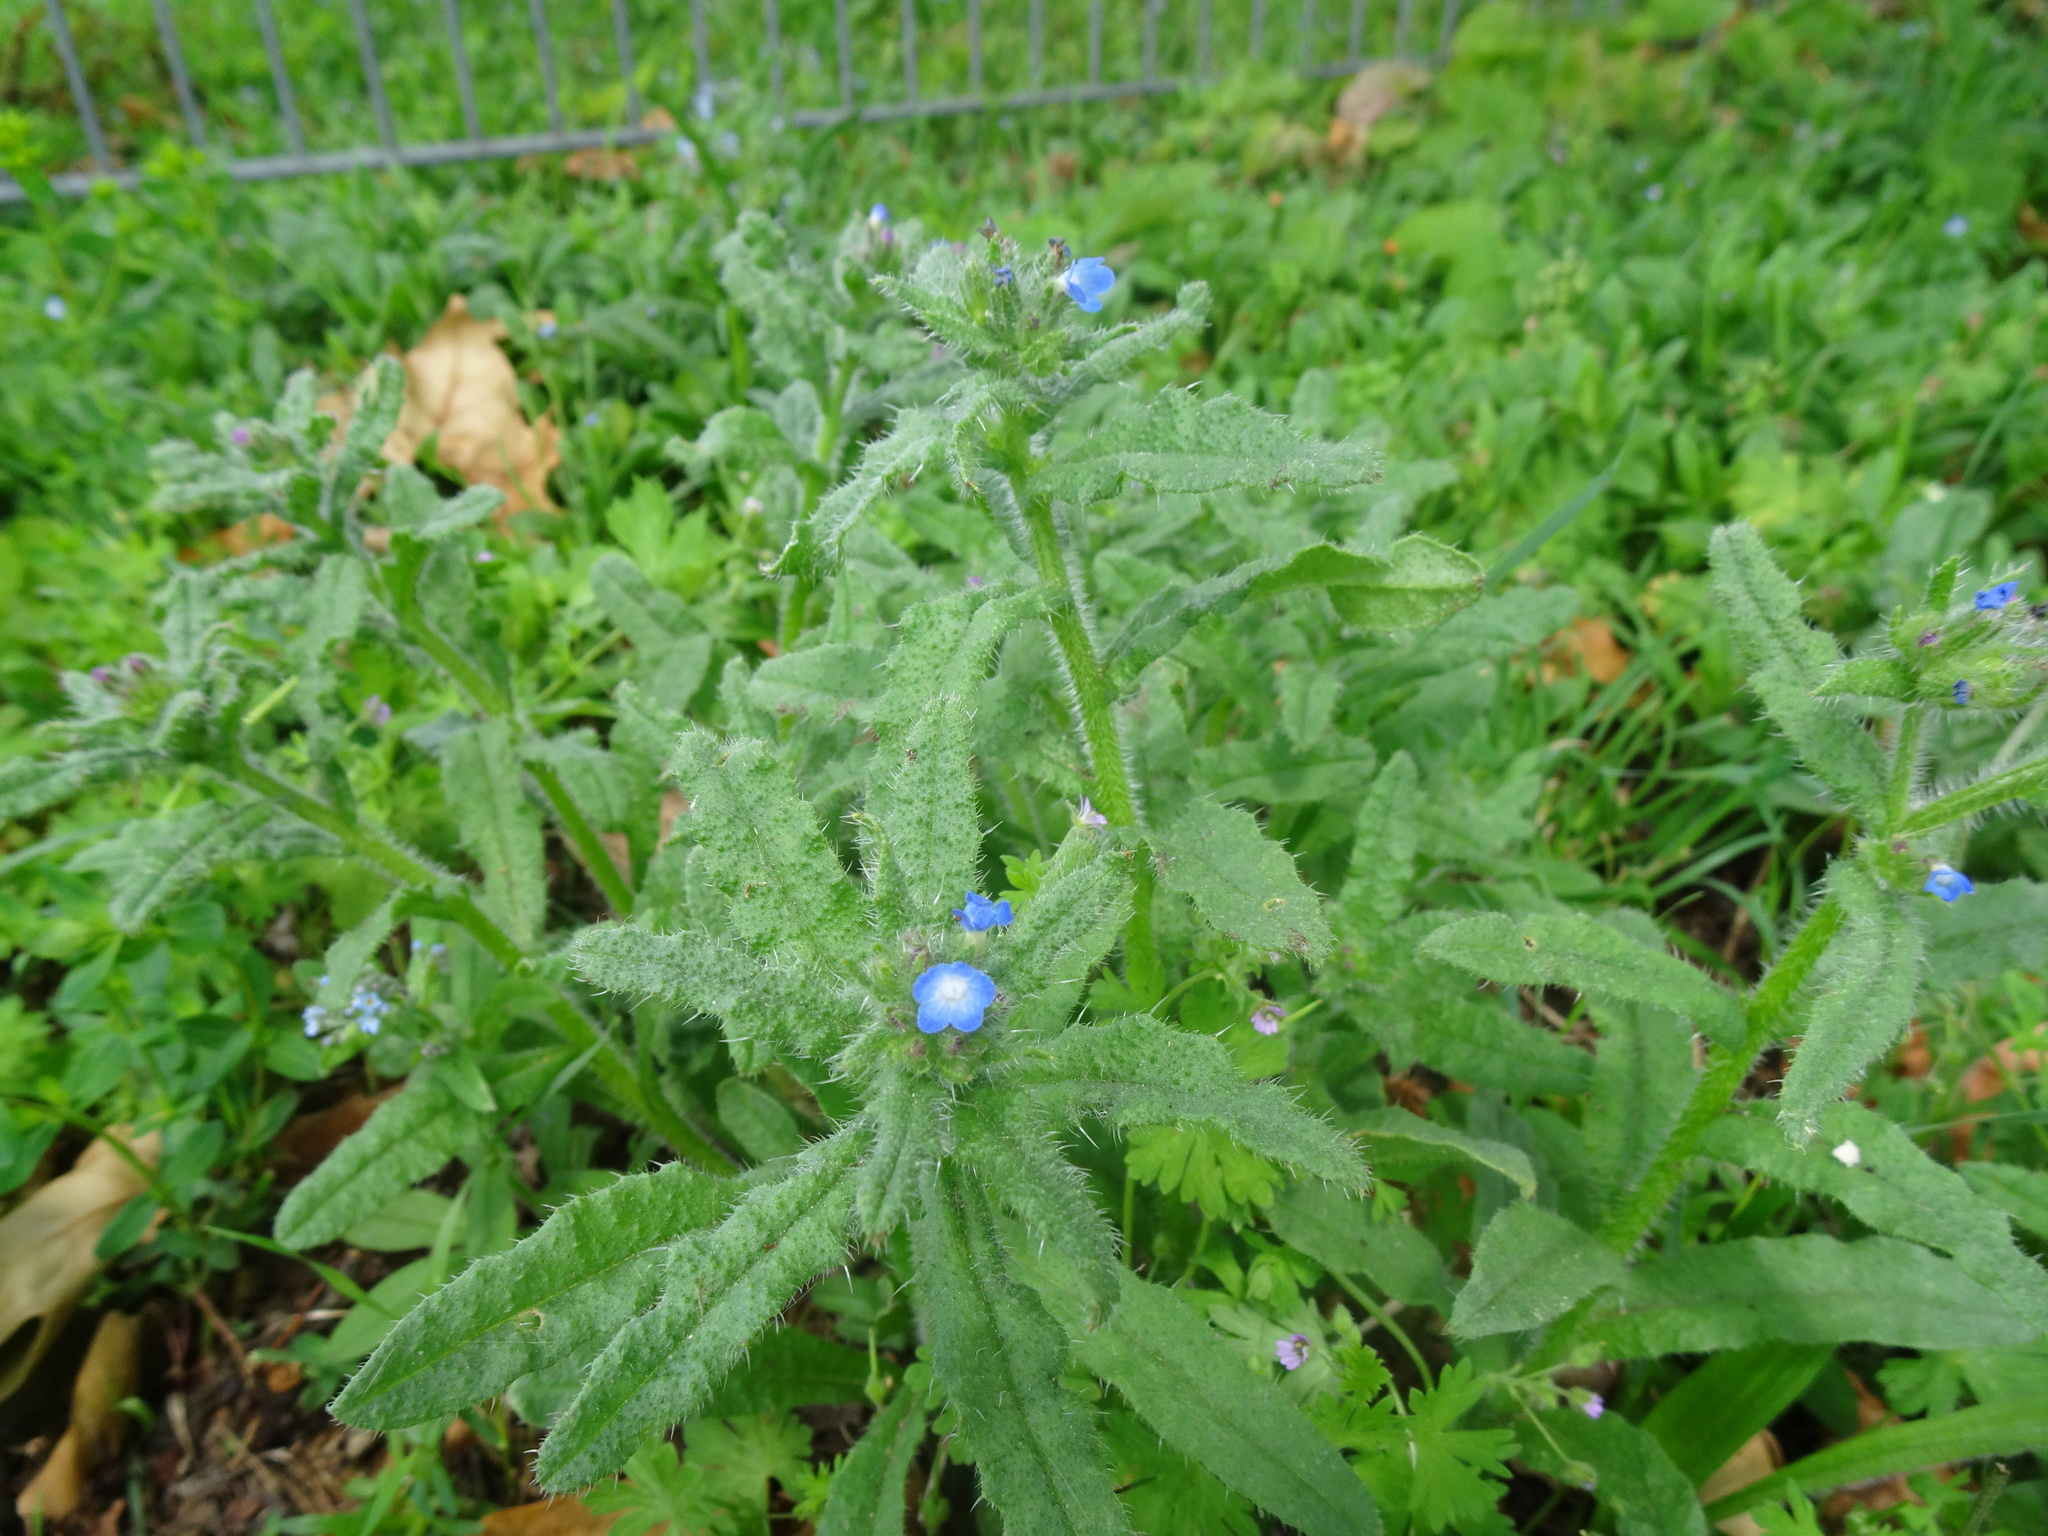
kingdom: Plantae
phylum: Tracheophyta
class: Magnoliopsida
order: Boraginales
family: Boraginaceae
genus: Lycopsis
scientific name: Lycopsis arvensis
